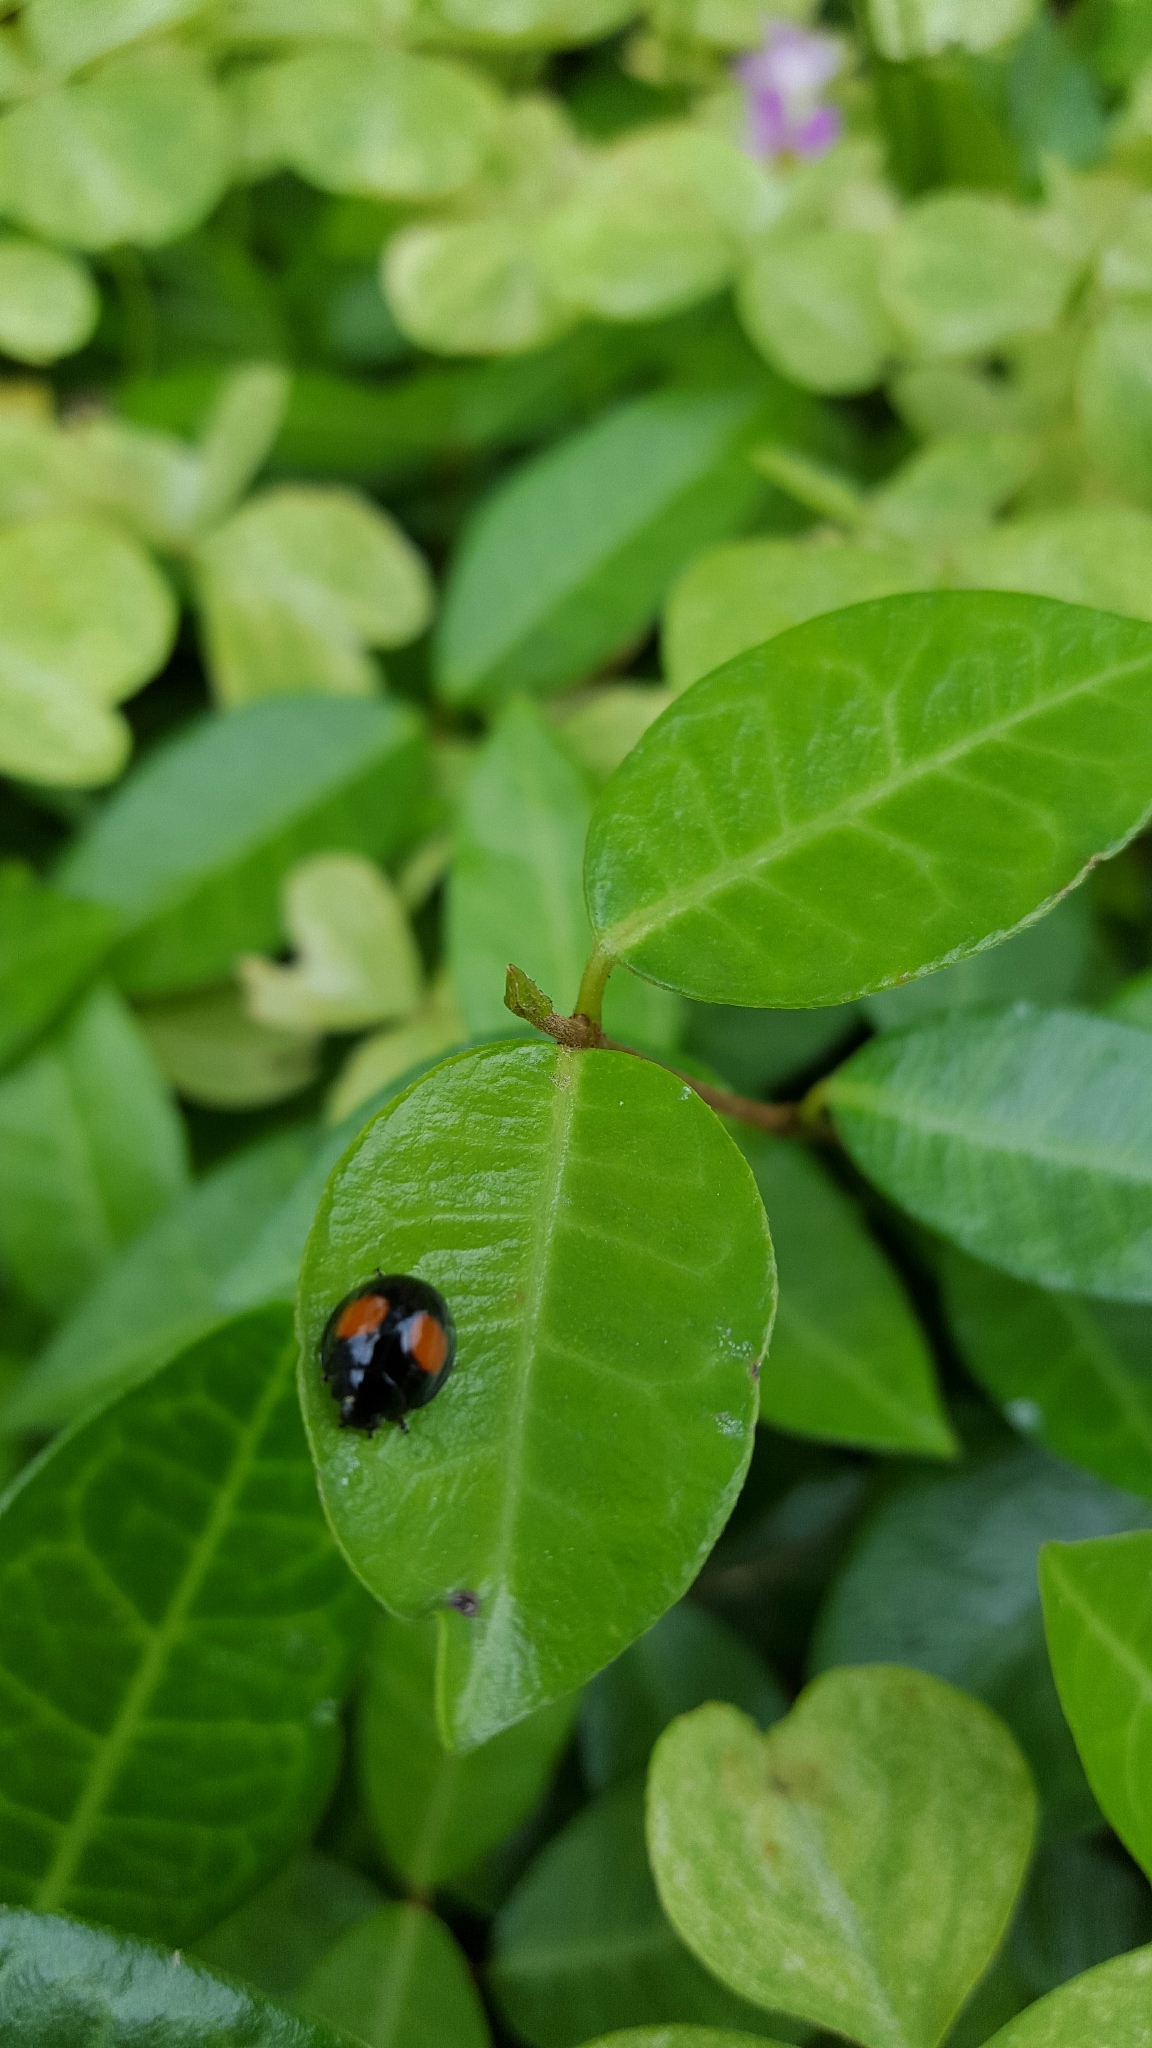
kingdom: Animalia
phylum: Arthropoda
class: Insecta
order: Coleoptera
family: Coccinellidae
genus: Chilocorus
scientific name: Chilocorus cacti
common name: Cactus lady beetle
